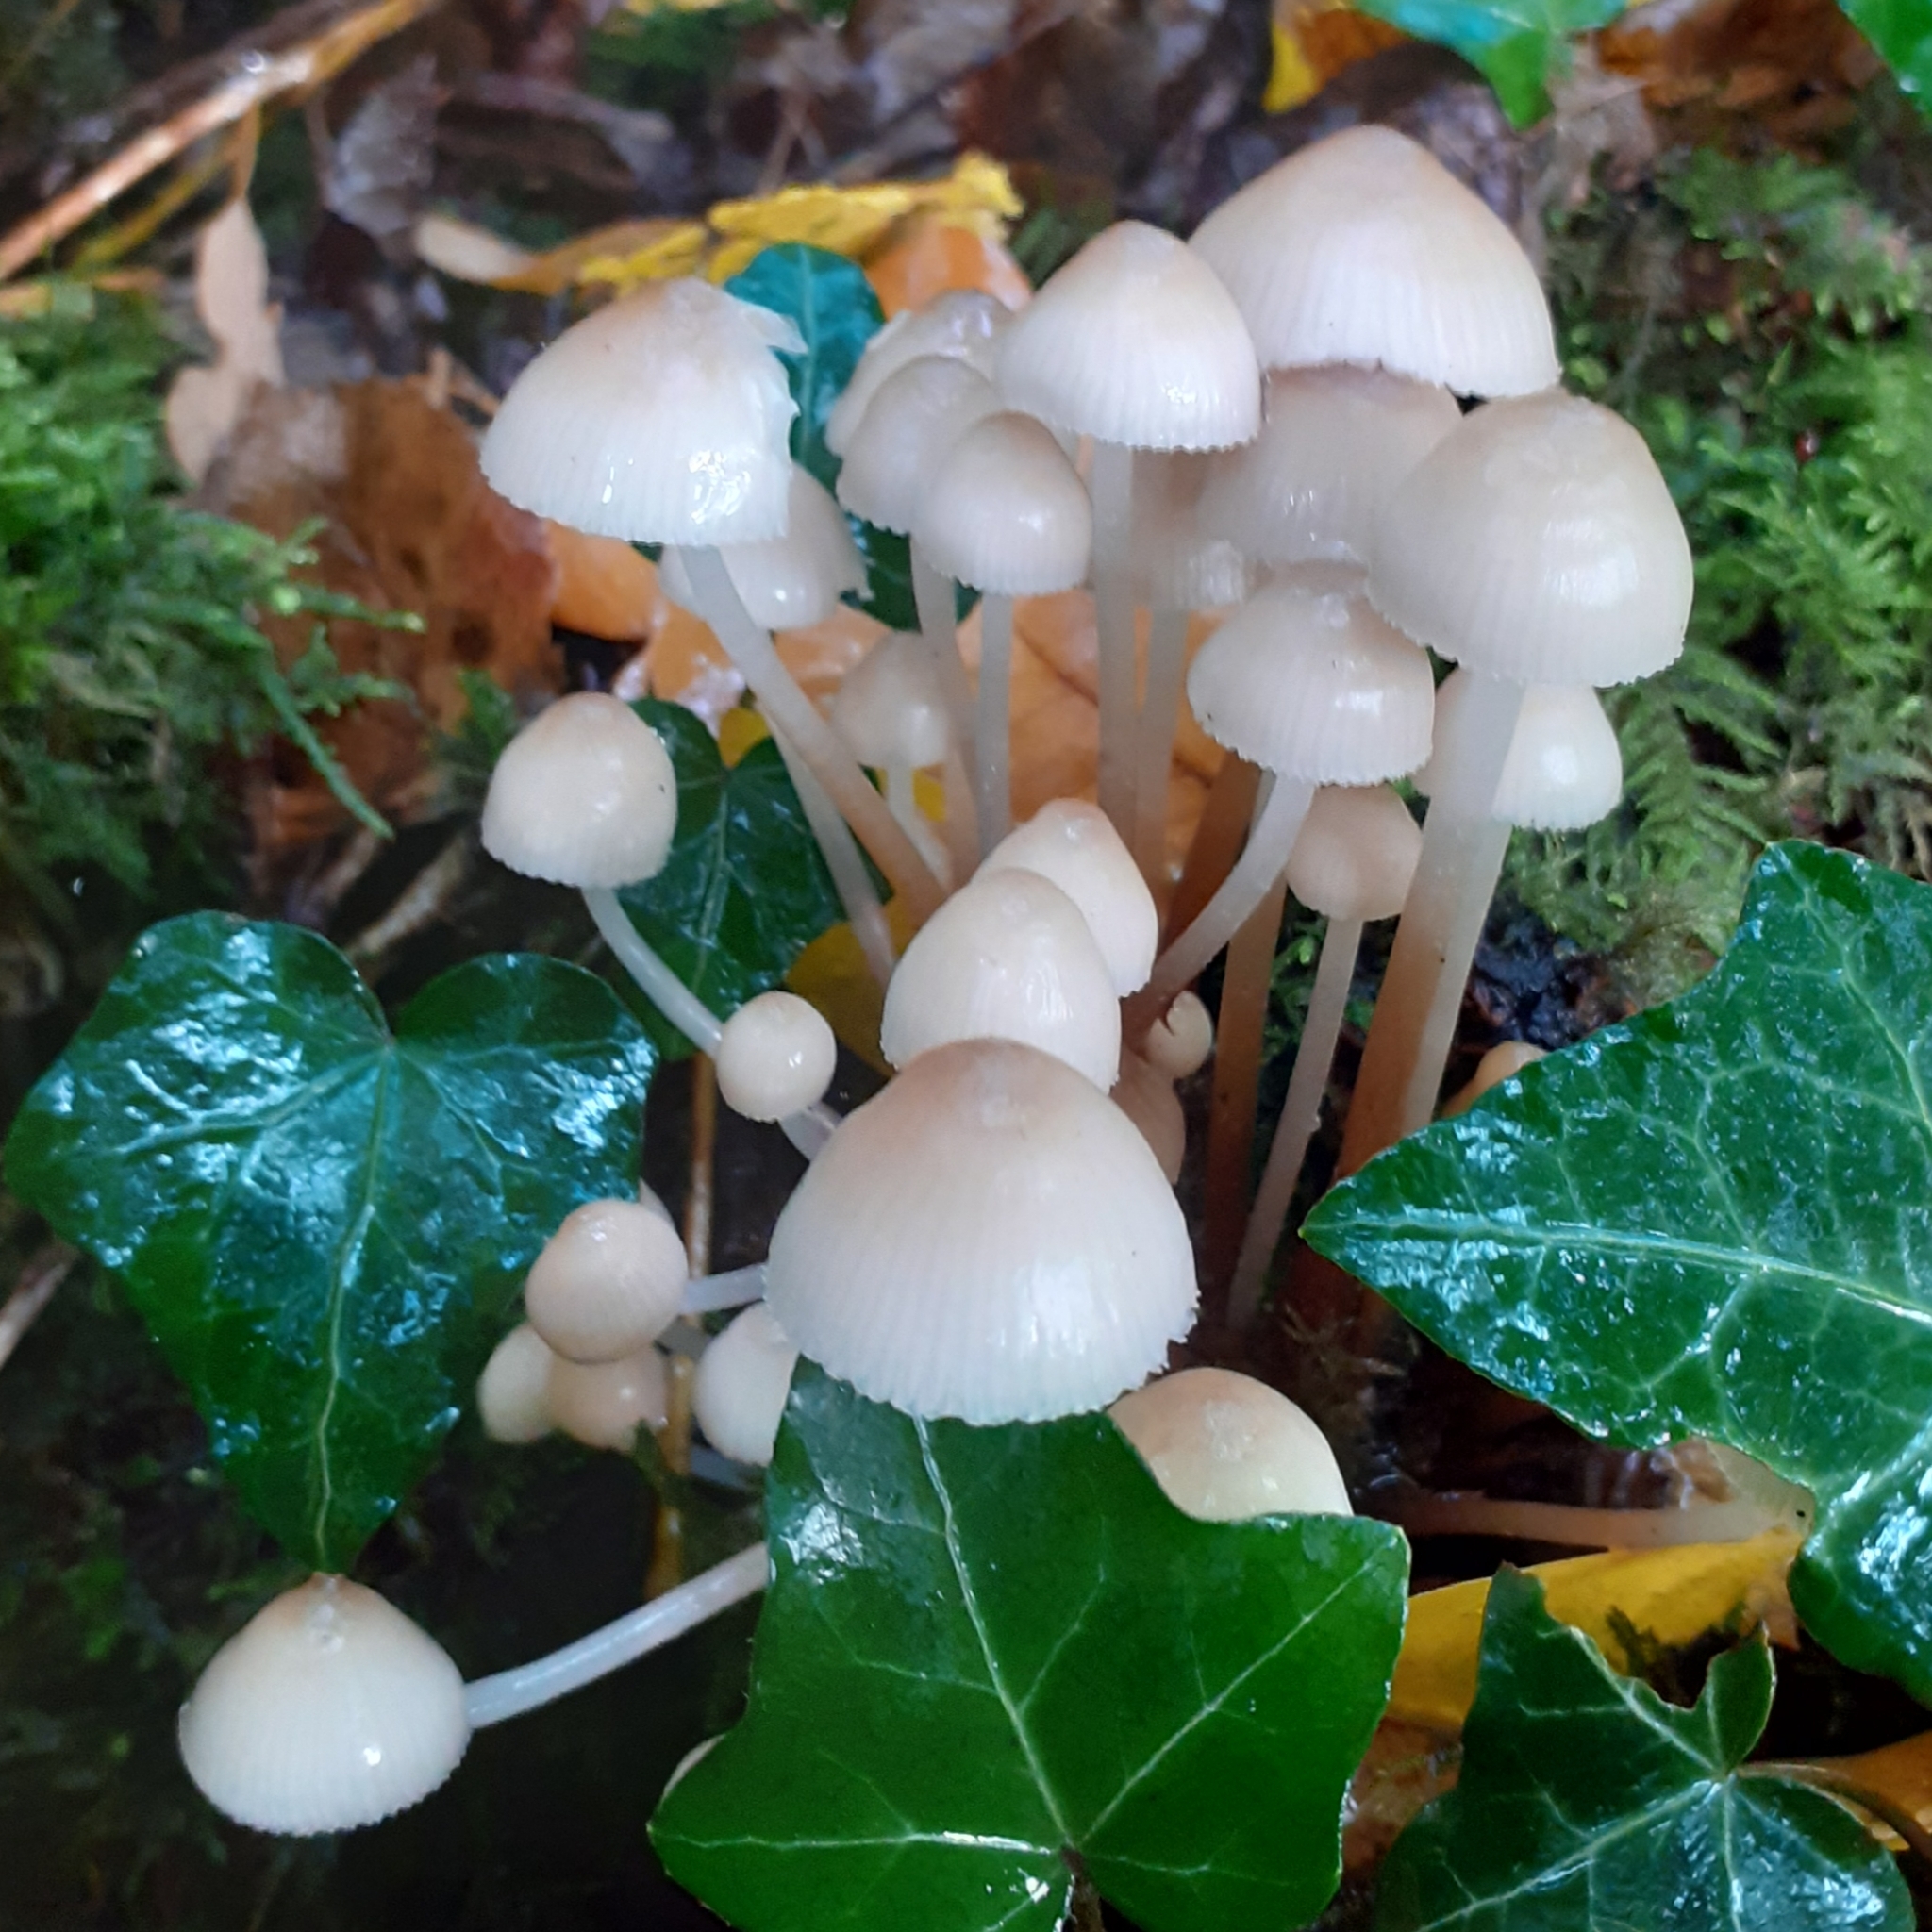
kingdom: Fungi
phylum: Basidiomycota
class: Agaricomycetes
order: Agaricales
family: Mycenaceae
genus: Mycena
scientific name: Mycena inclinata
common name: Clustered bonnet
